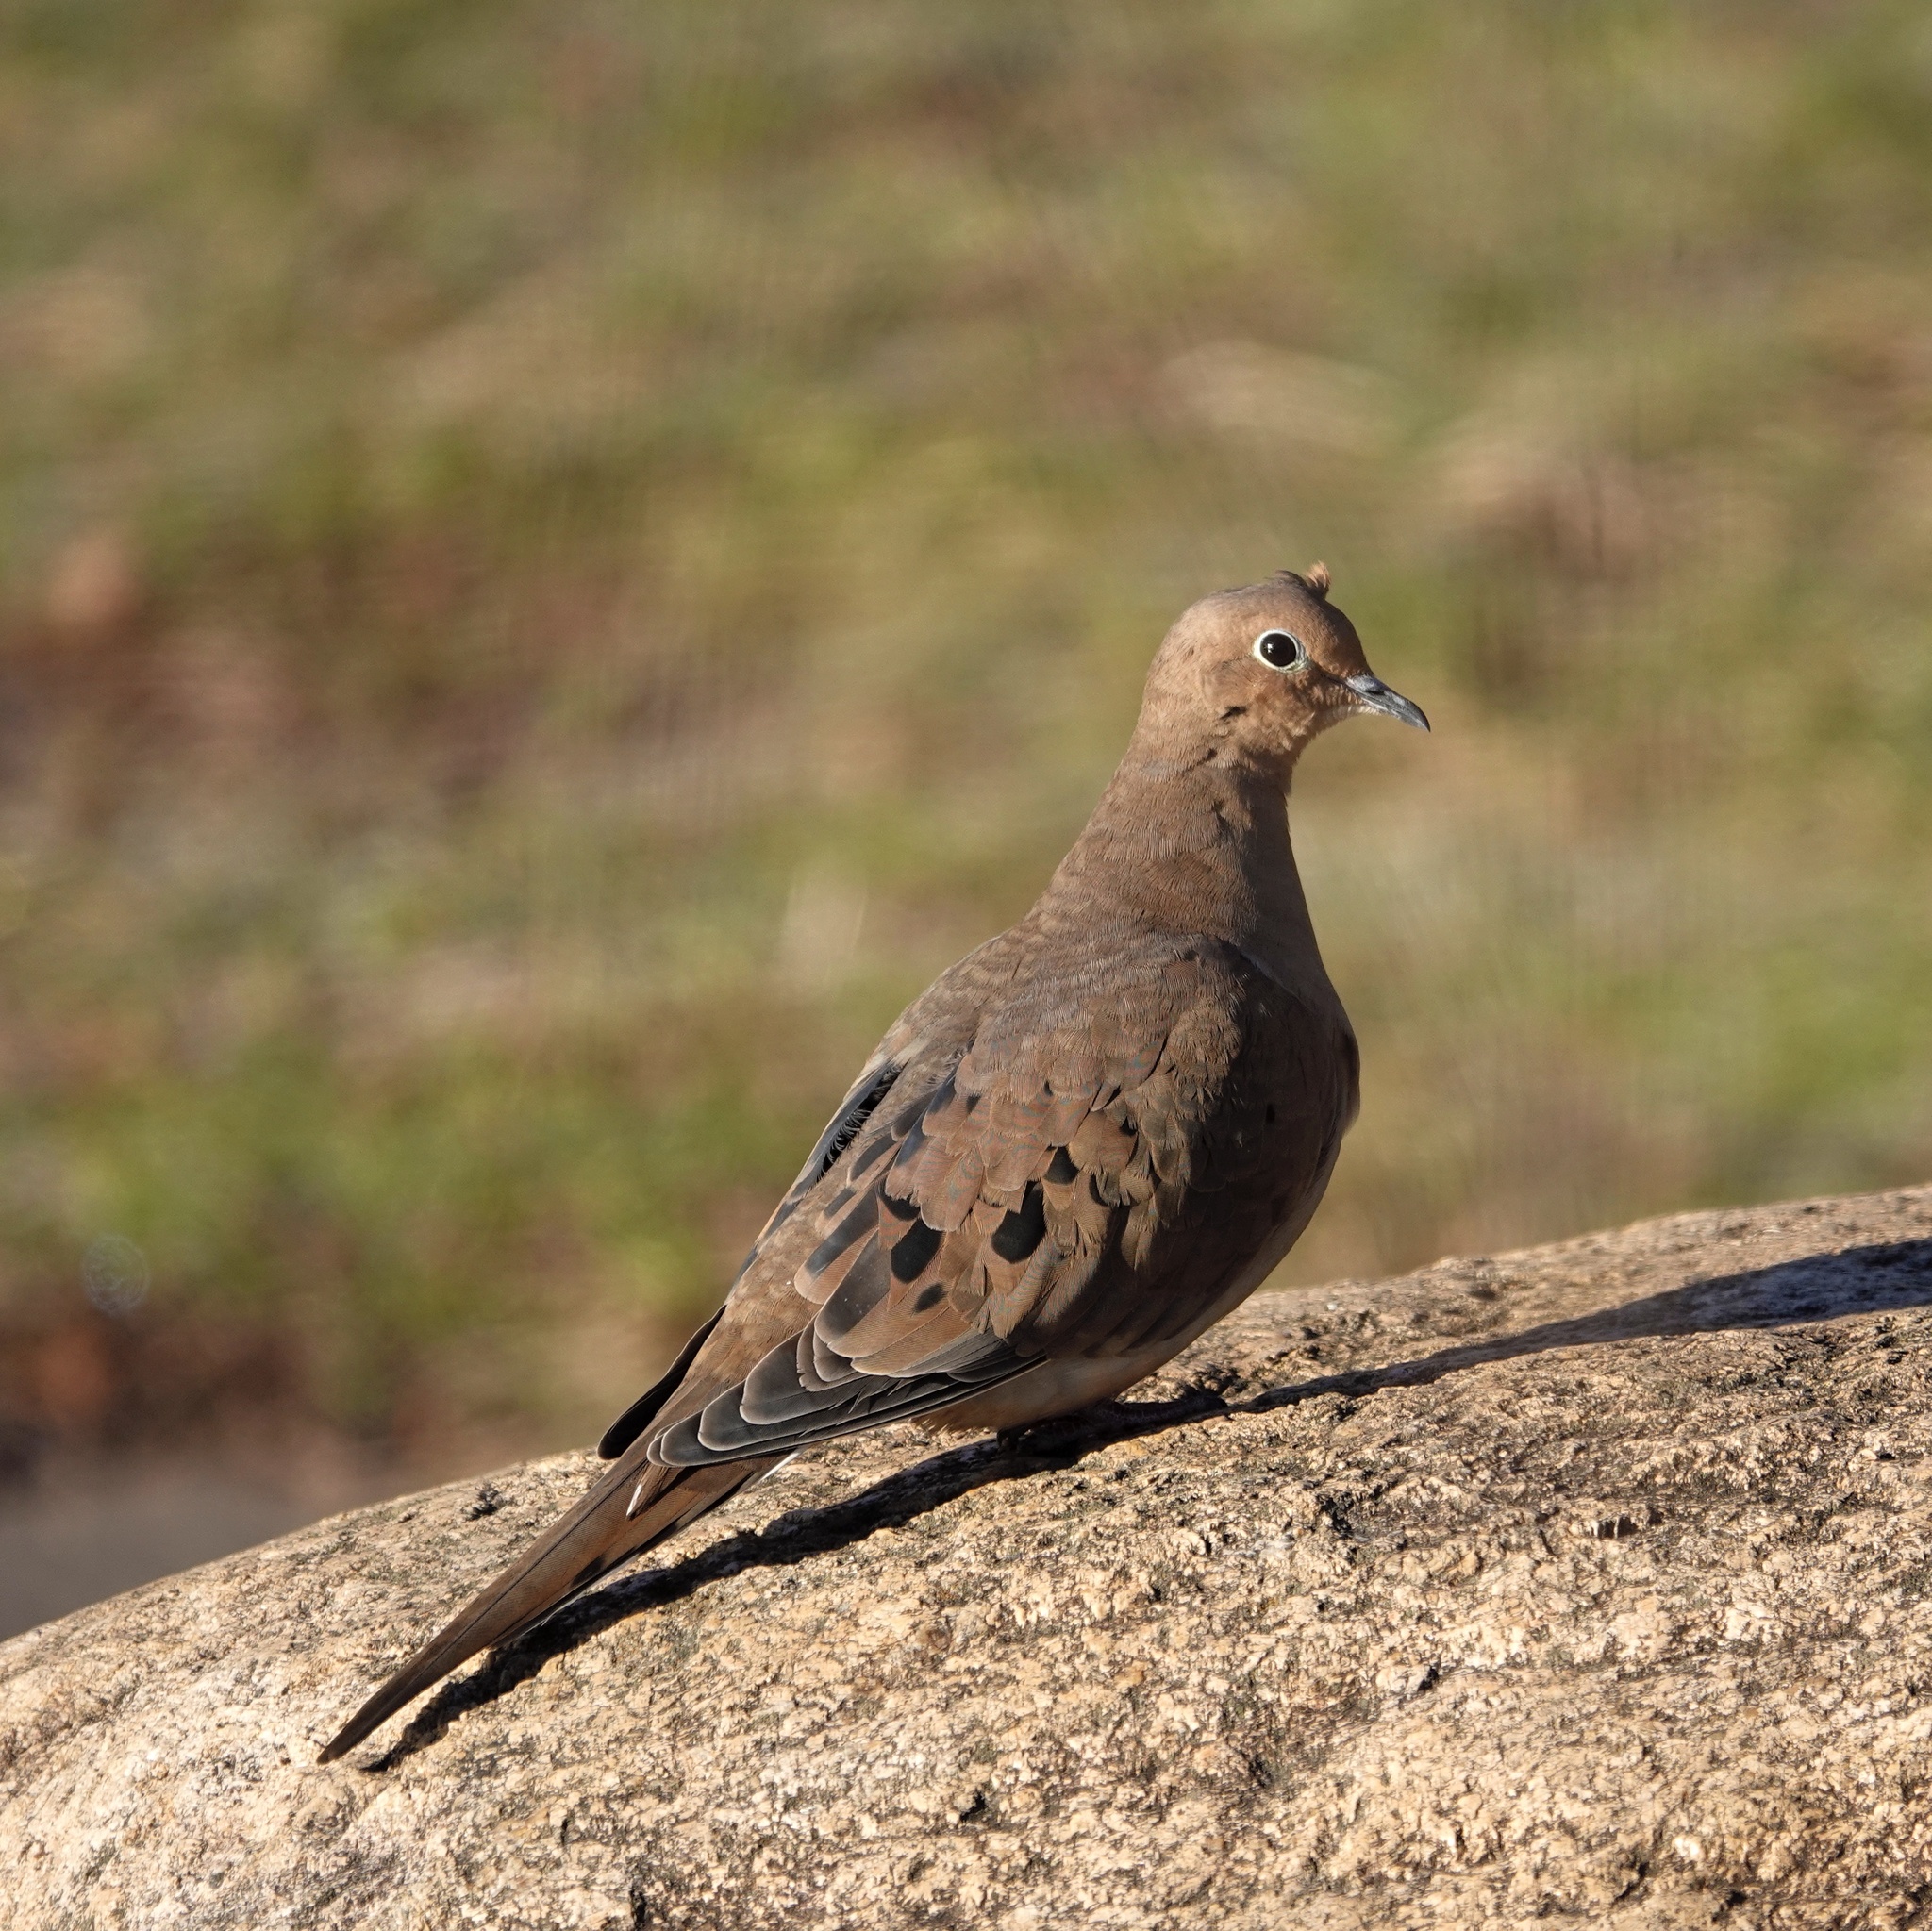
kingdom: Animalia
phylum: Chordata
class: Aves
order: Columbiformes
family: Columbidae
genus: Zenaida
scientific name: Zenaida macroura
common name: Mourning dove
